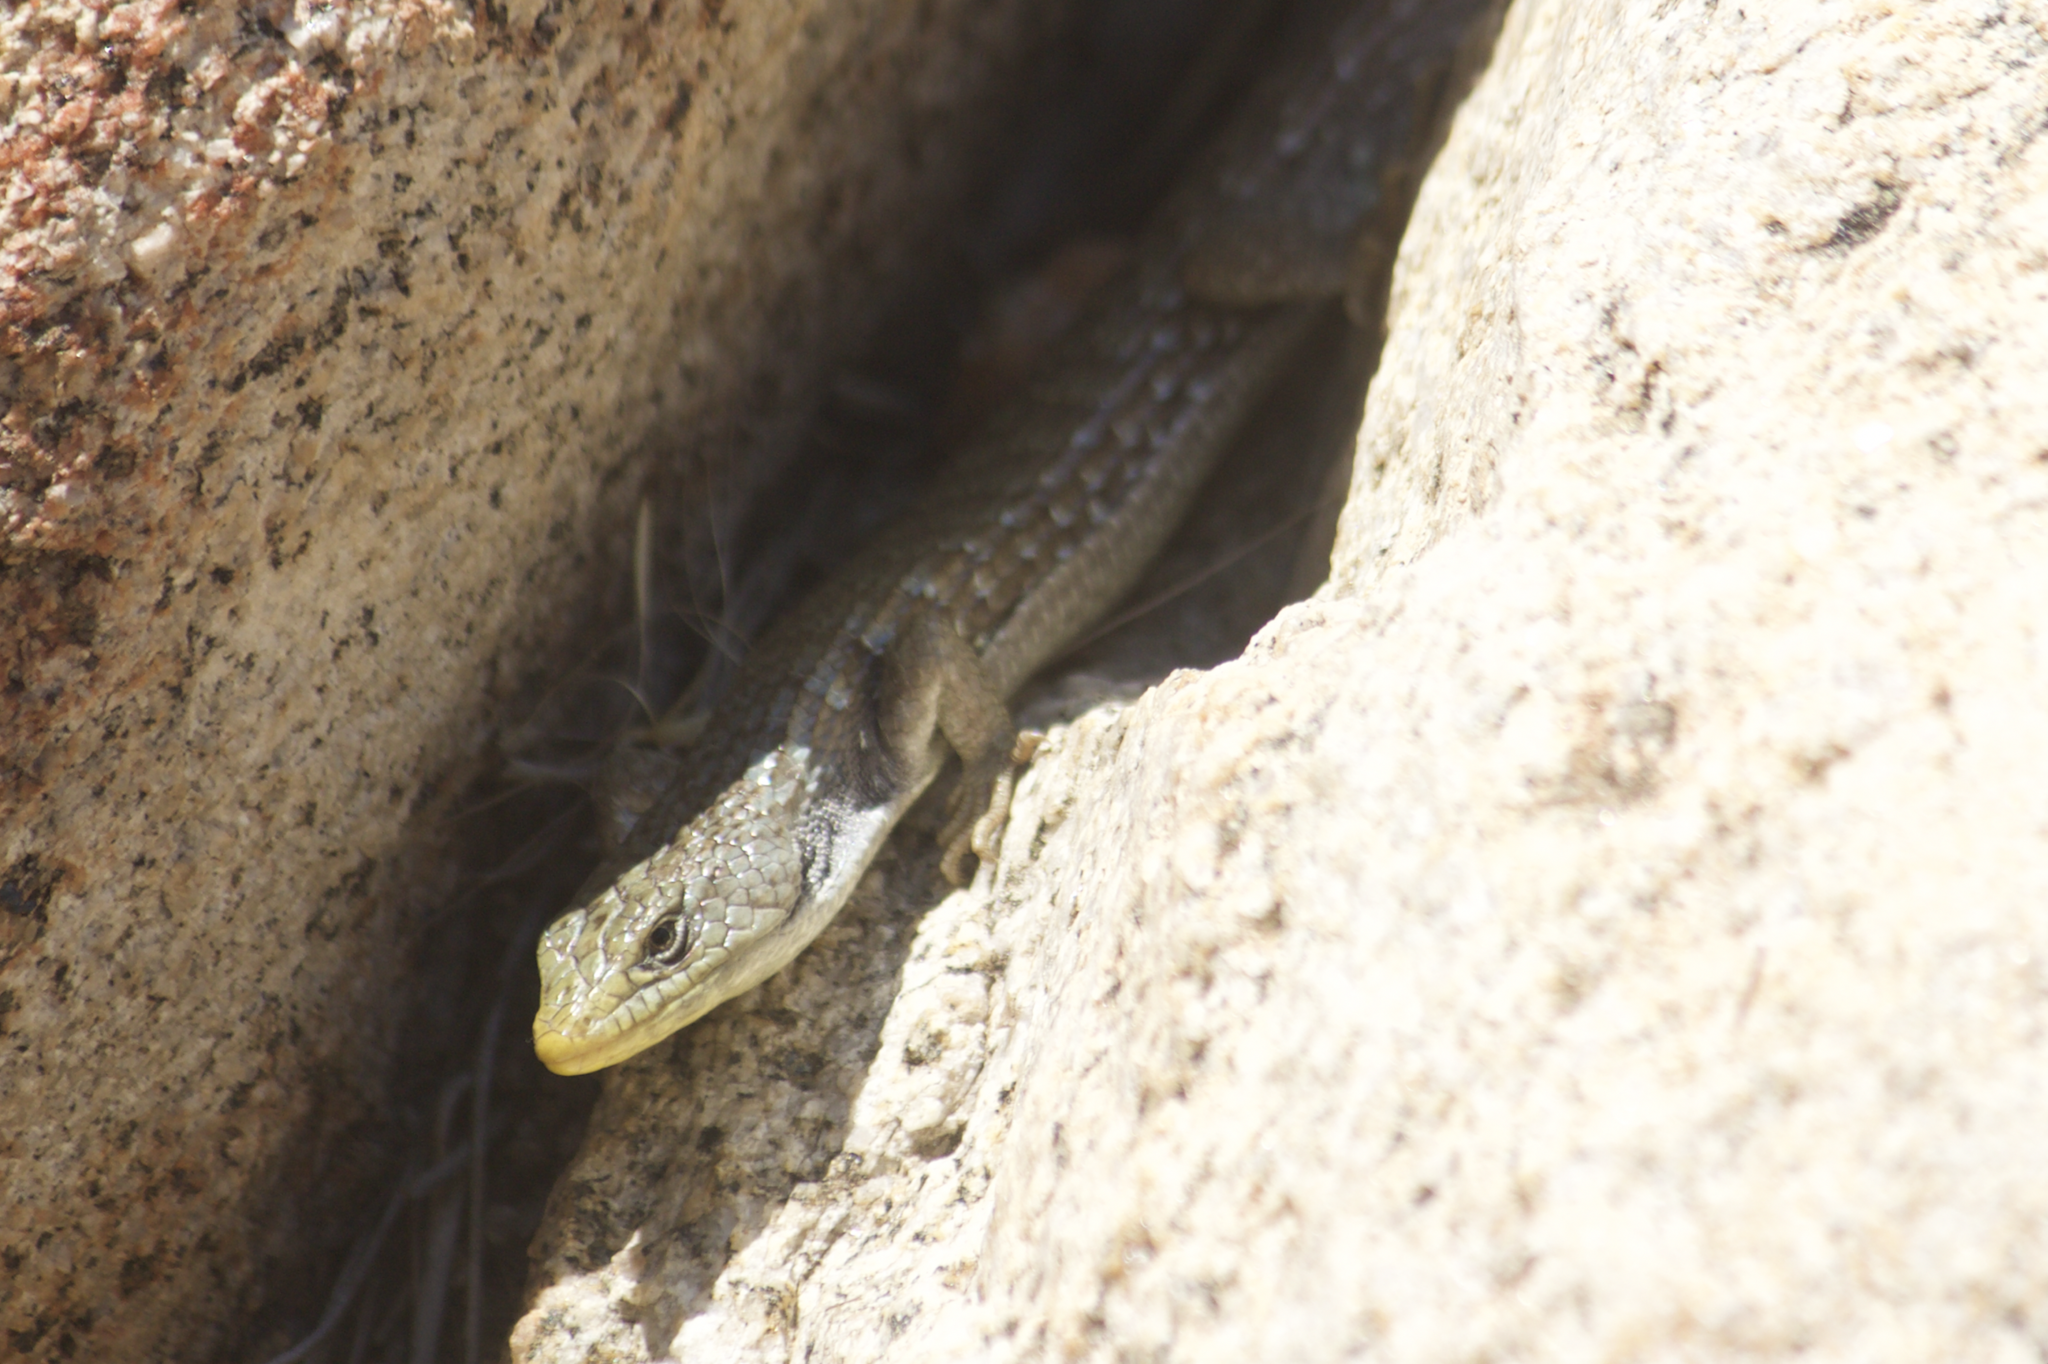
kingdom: Animalia
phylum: Chordata
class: Squamata
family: Anguidae
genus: Elgaria
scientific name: Elgaria coerulea
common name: Northern alligator lizard
